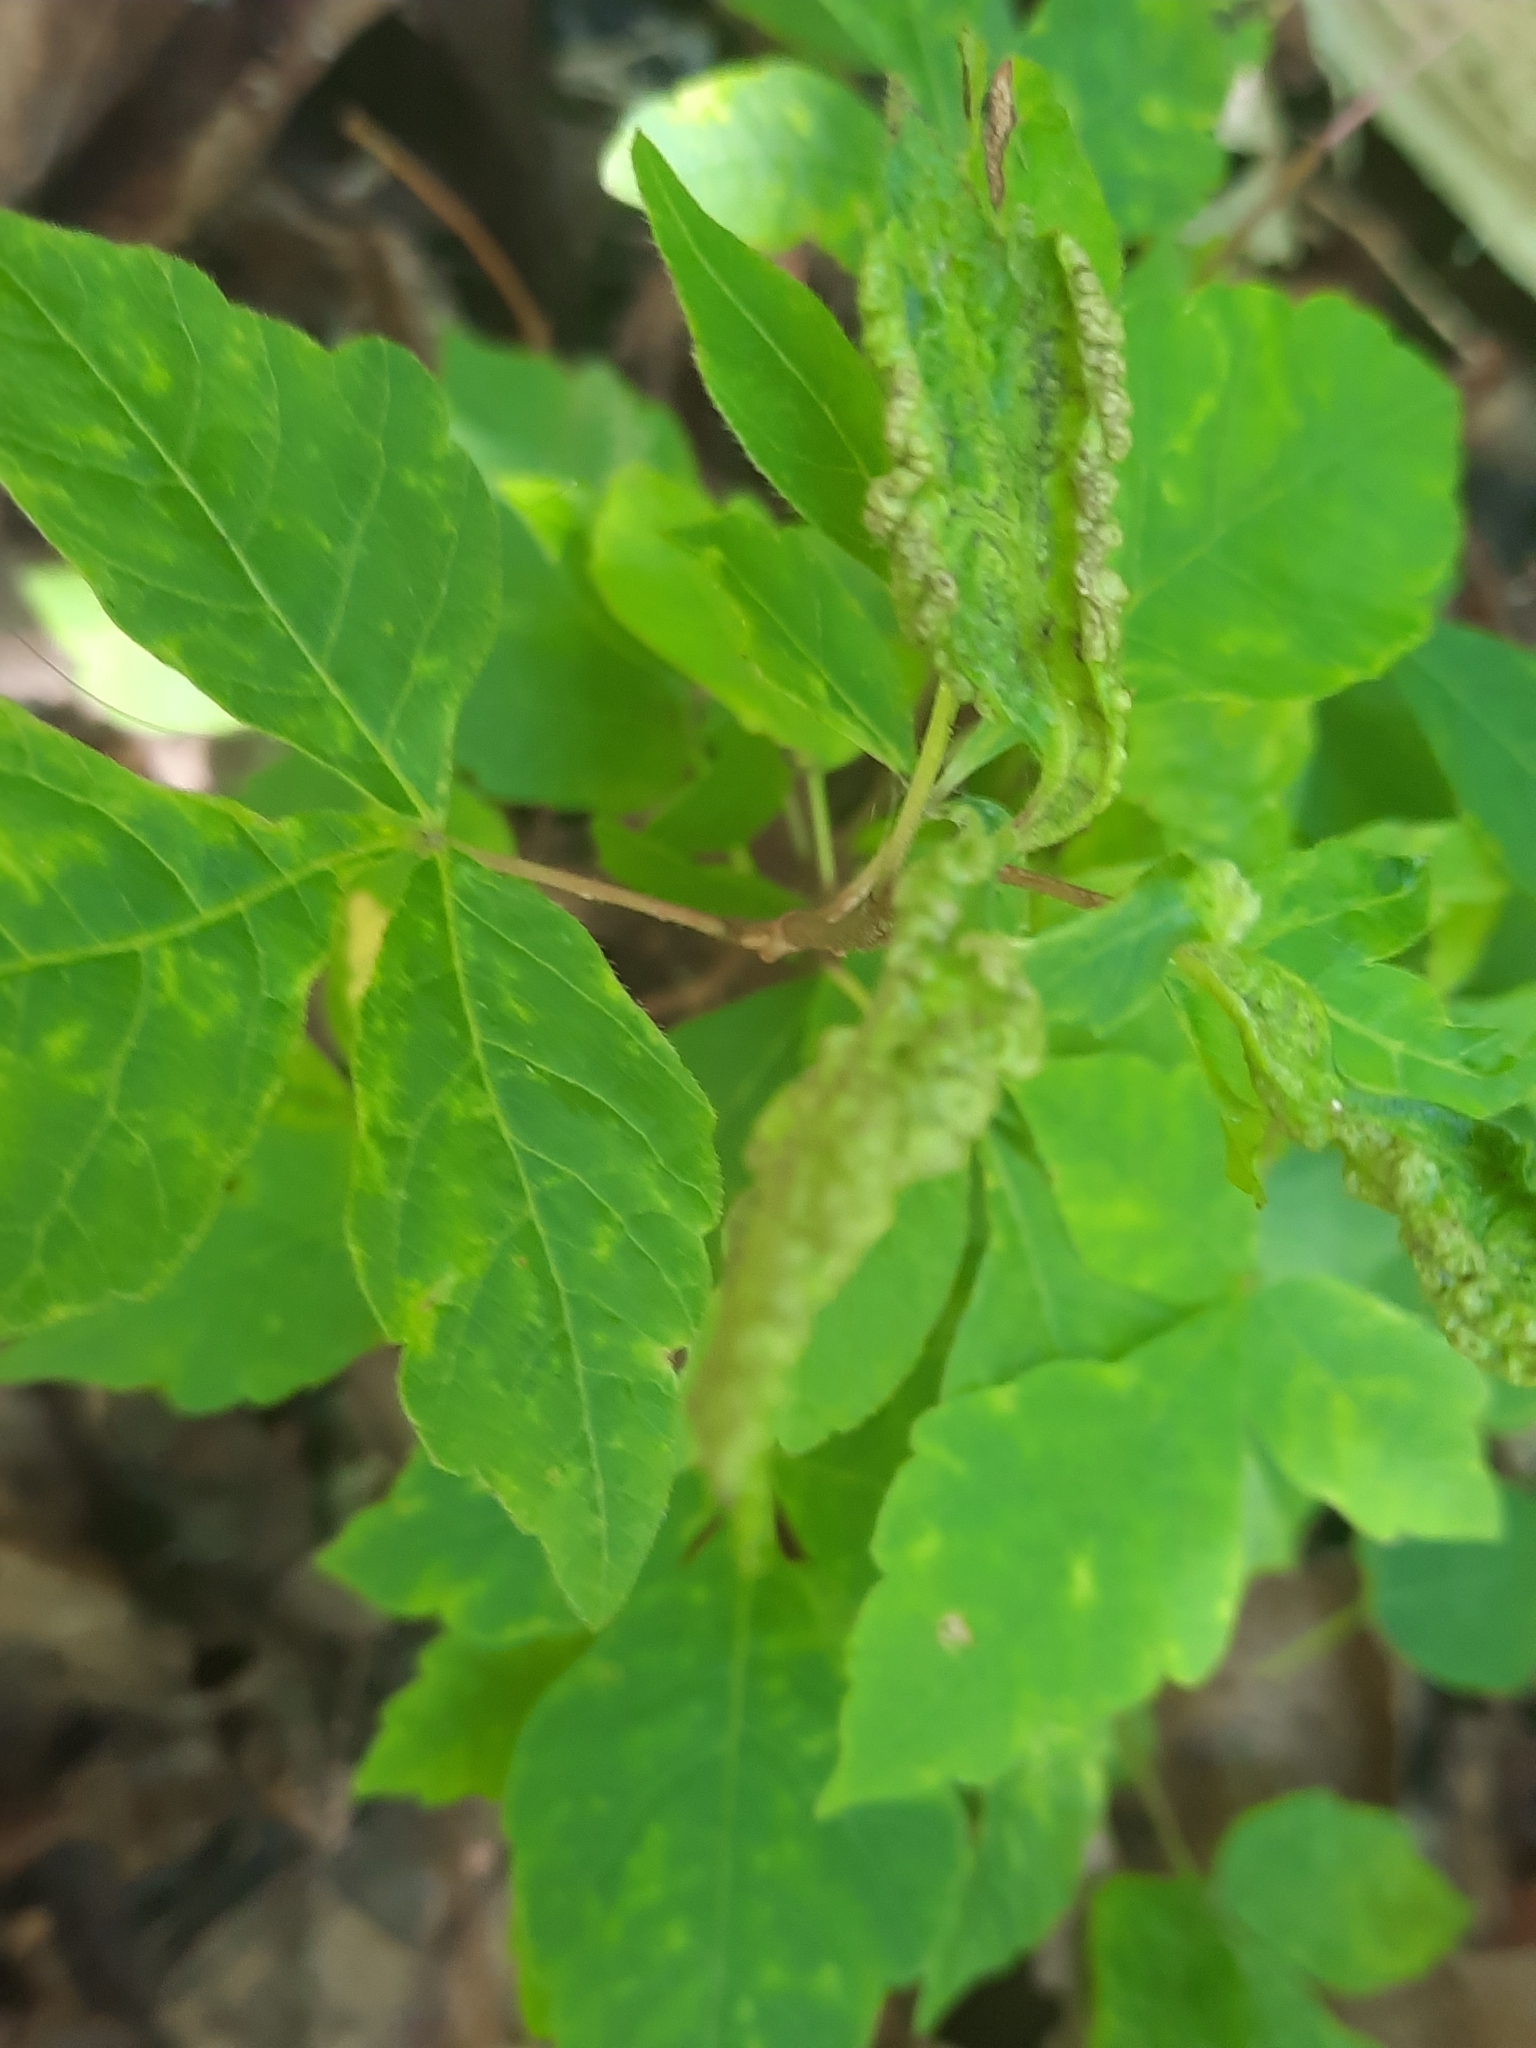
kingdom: Animalia
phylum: Arthropoda
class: Arachnida
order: Trombidiformes
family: Eriophyidae
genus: Aculops
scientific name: Aculops
